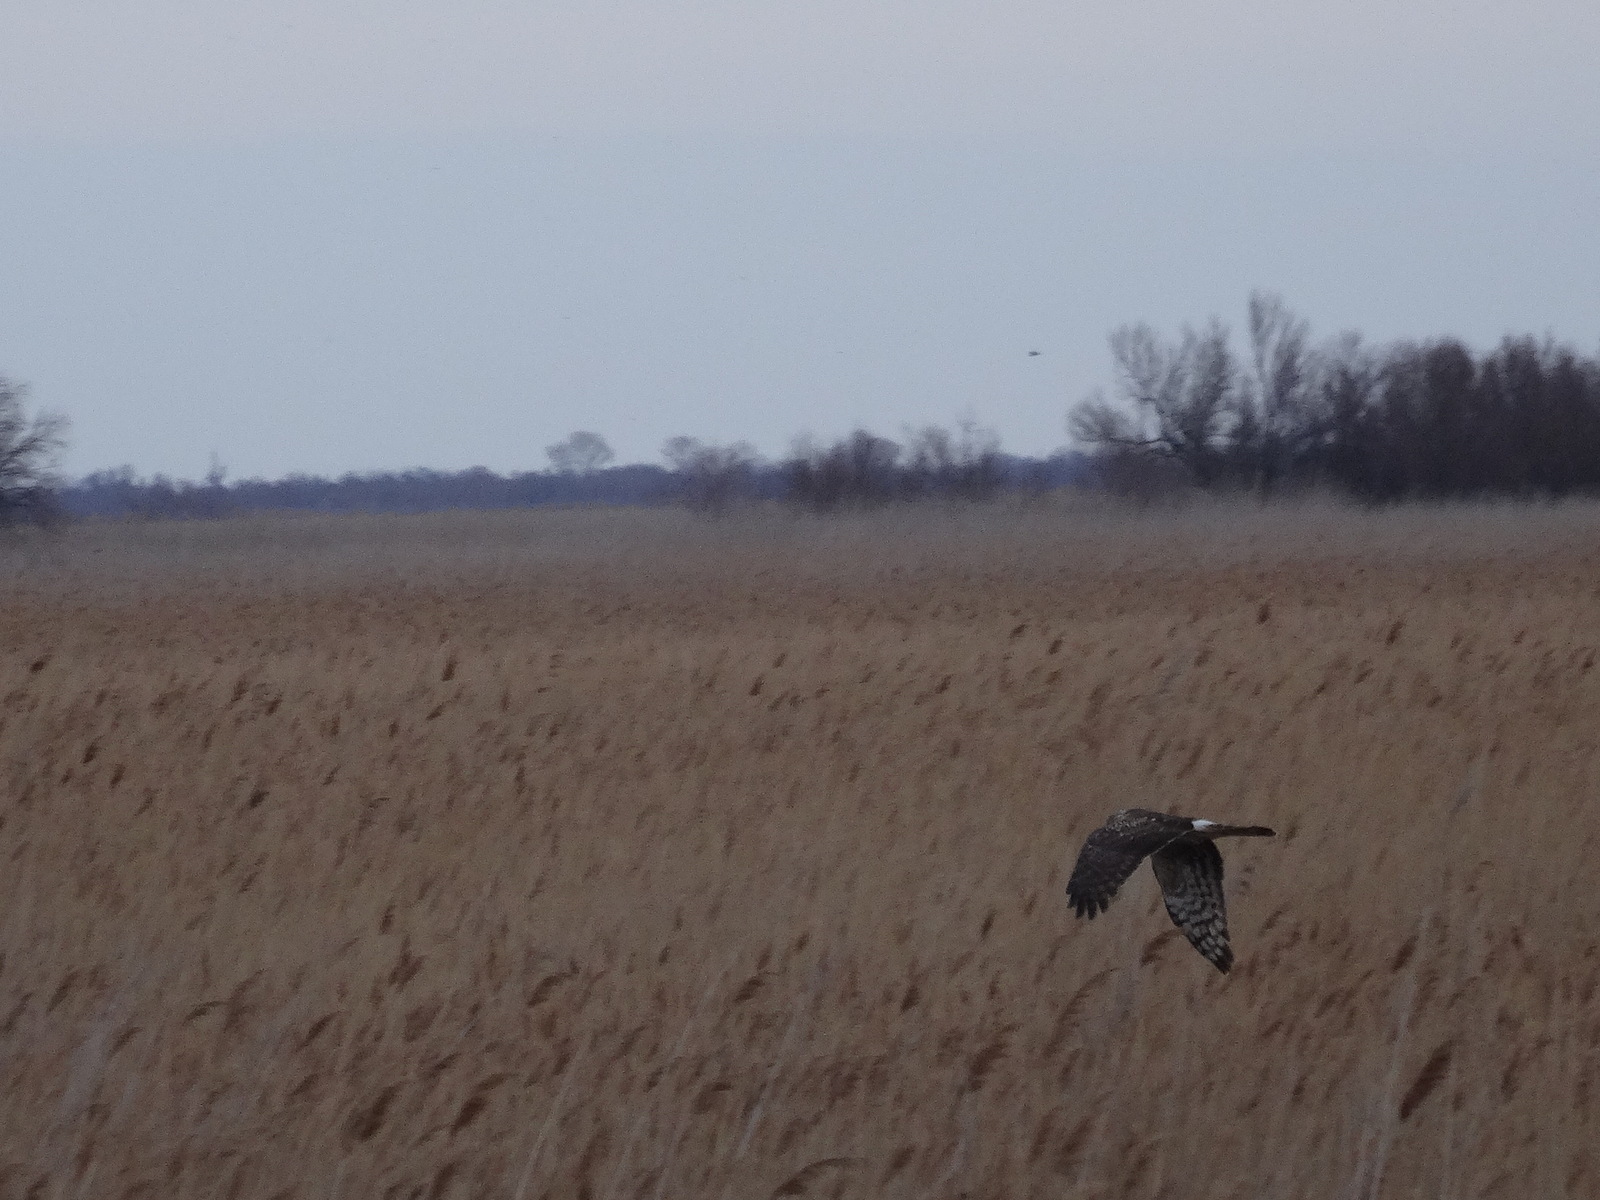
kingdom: Animalia
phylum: Chordata
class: Aves
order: Accipitriformes
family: Accipitridae
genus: Circus
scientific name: Circus cyaneus
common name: Hen harrier
